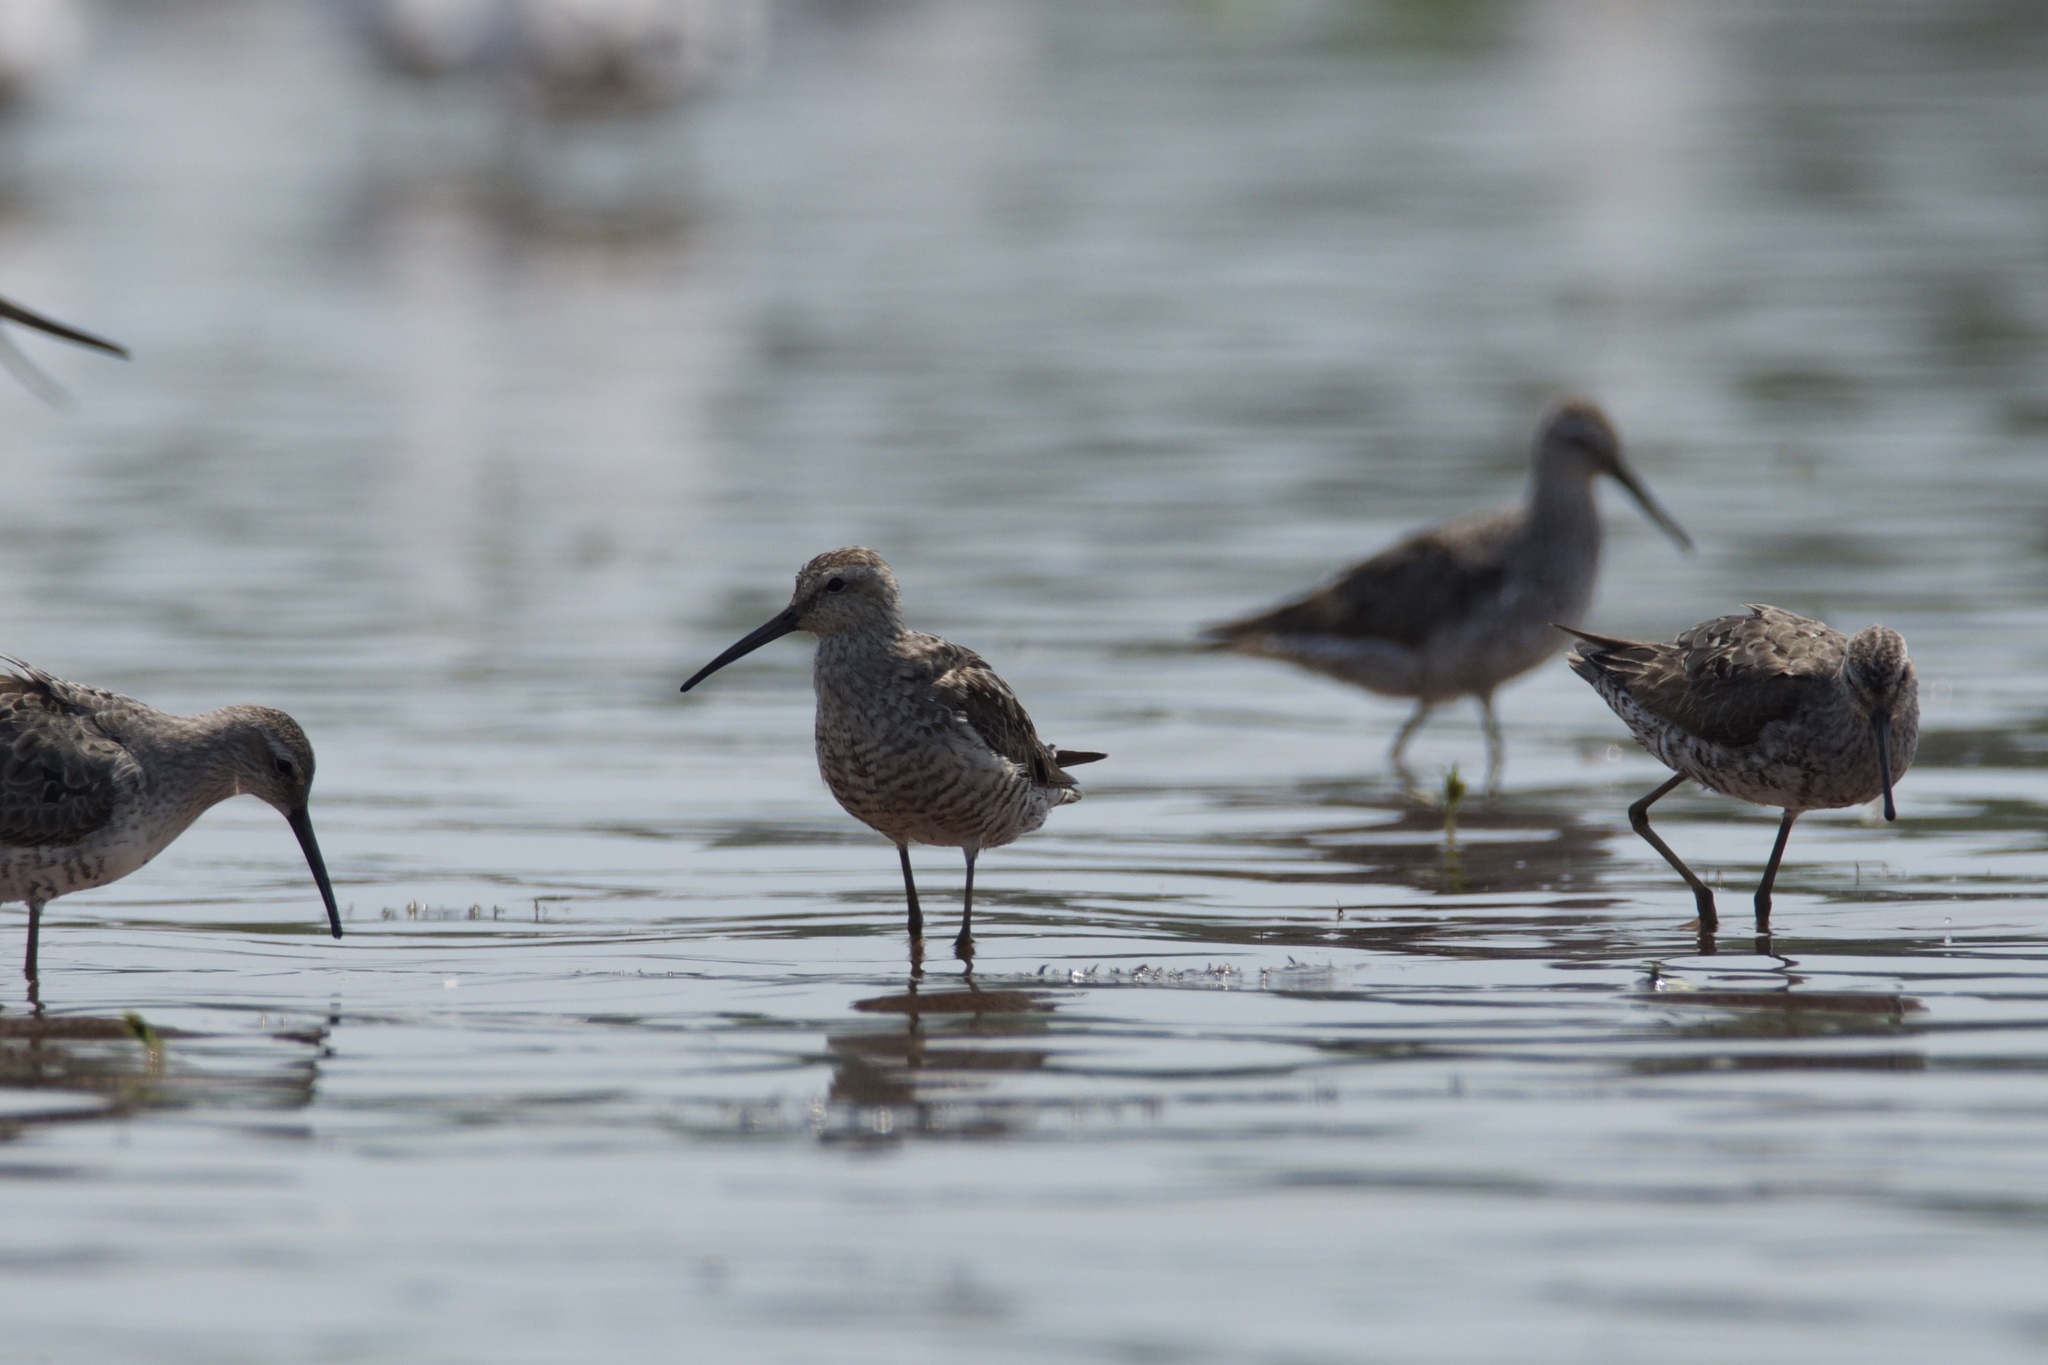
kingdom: Animalia
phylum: Chordata
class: Aves
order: Charadriiformes
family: Scolopacidae
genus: Calidris
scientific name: Calidris himantopus
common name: Stilt sandpiper
